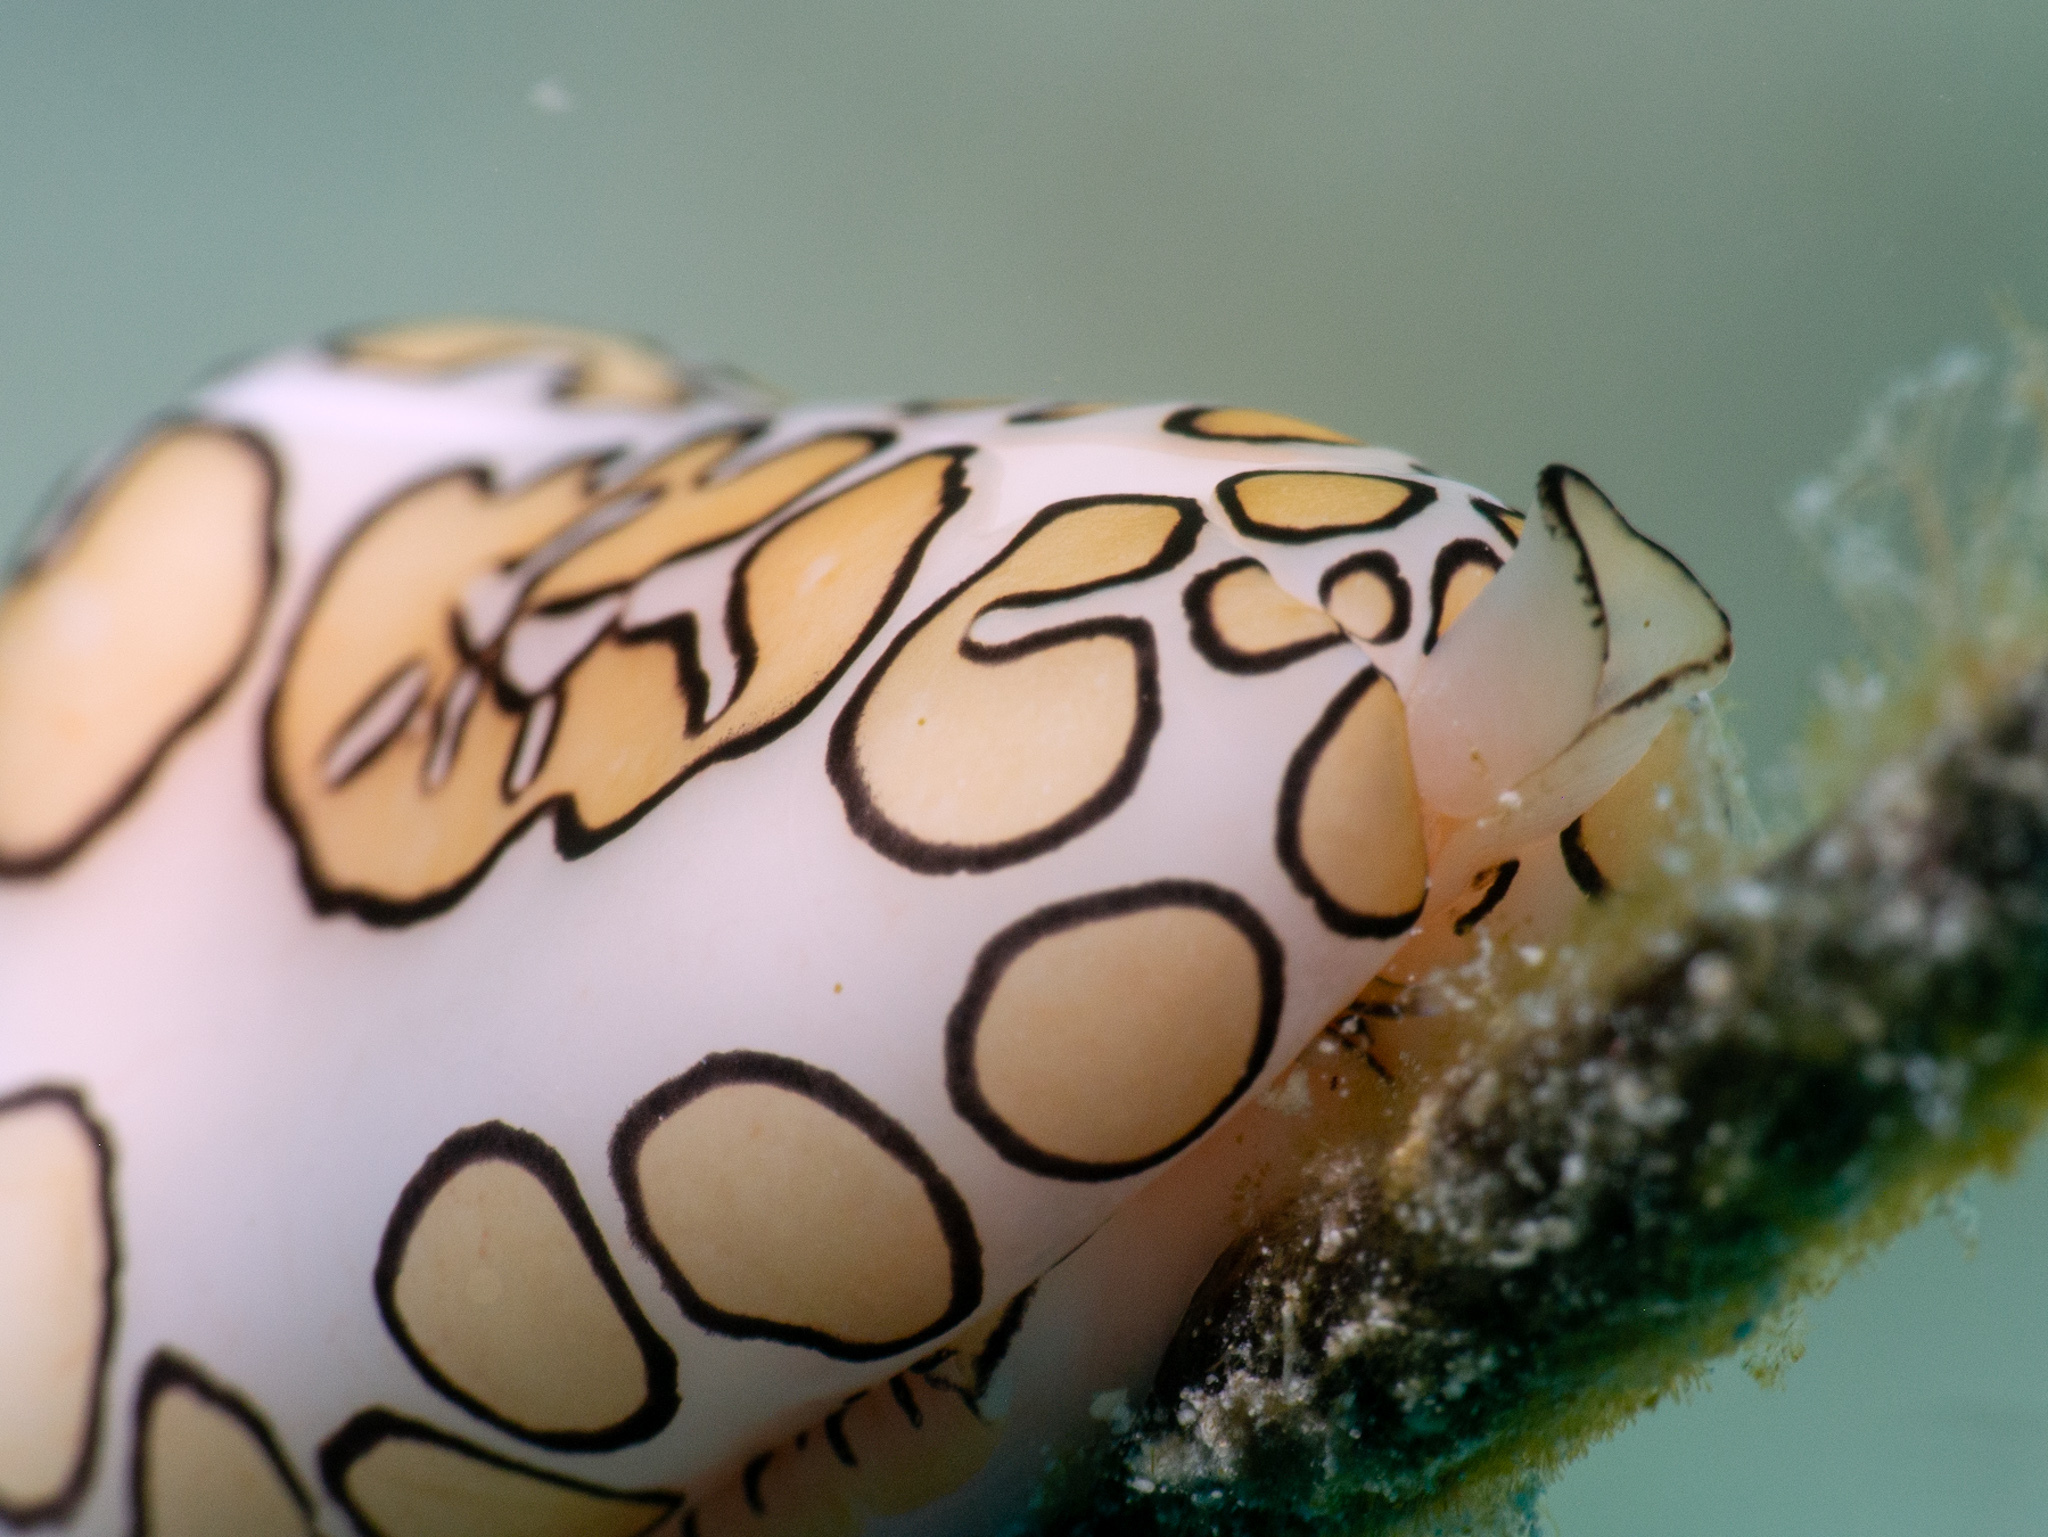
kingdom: Animalia
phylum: Mollusca
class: Gastropoda
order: Littorinimorpha
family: Ovulidae
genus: Cyphoma
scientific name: Cyphoma gibbosum
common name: Flamingo tongue
